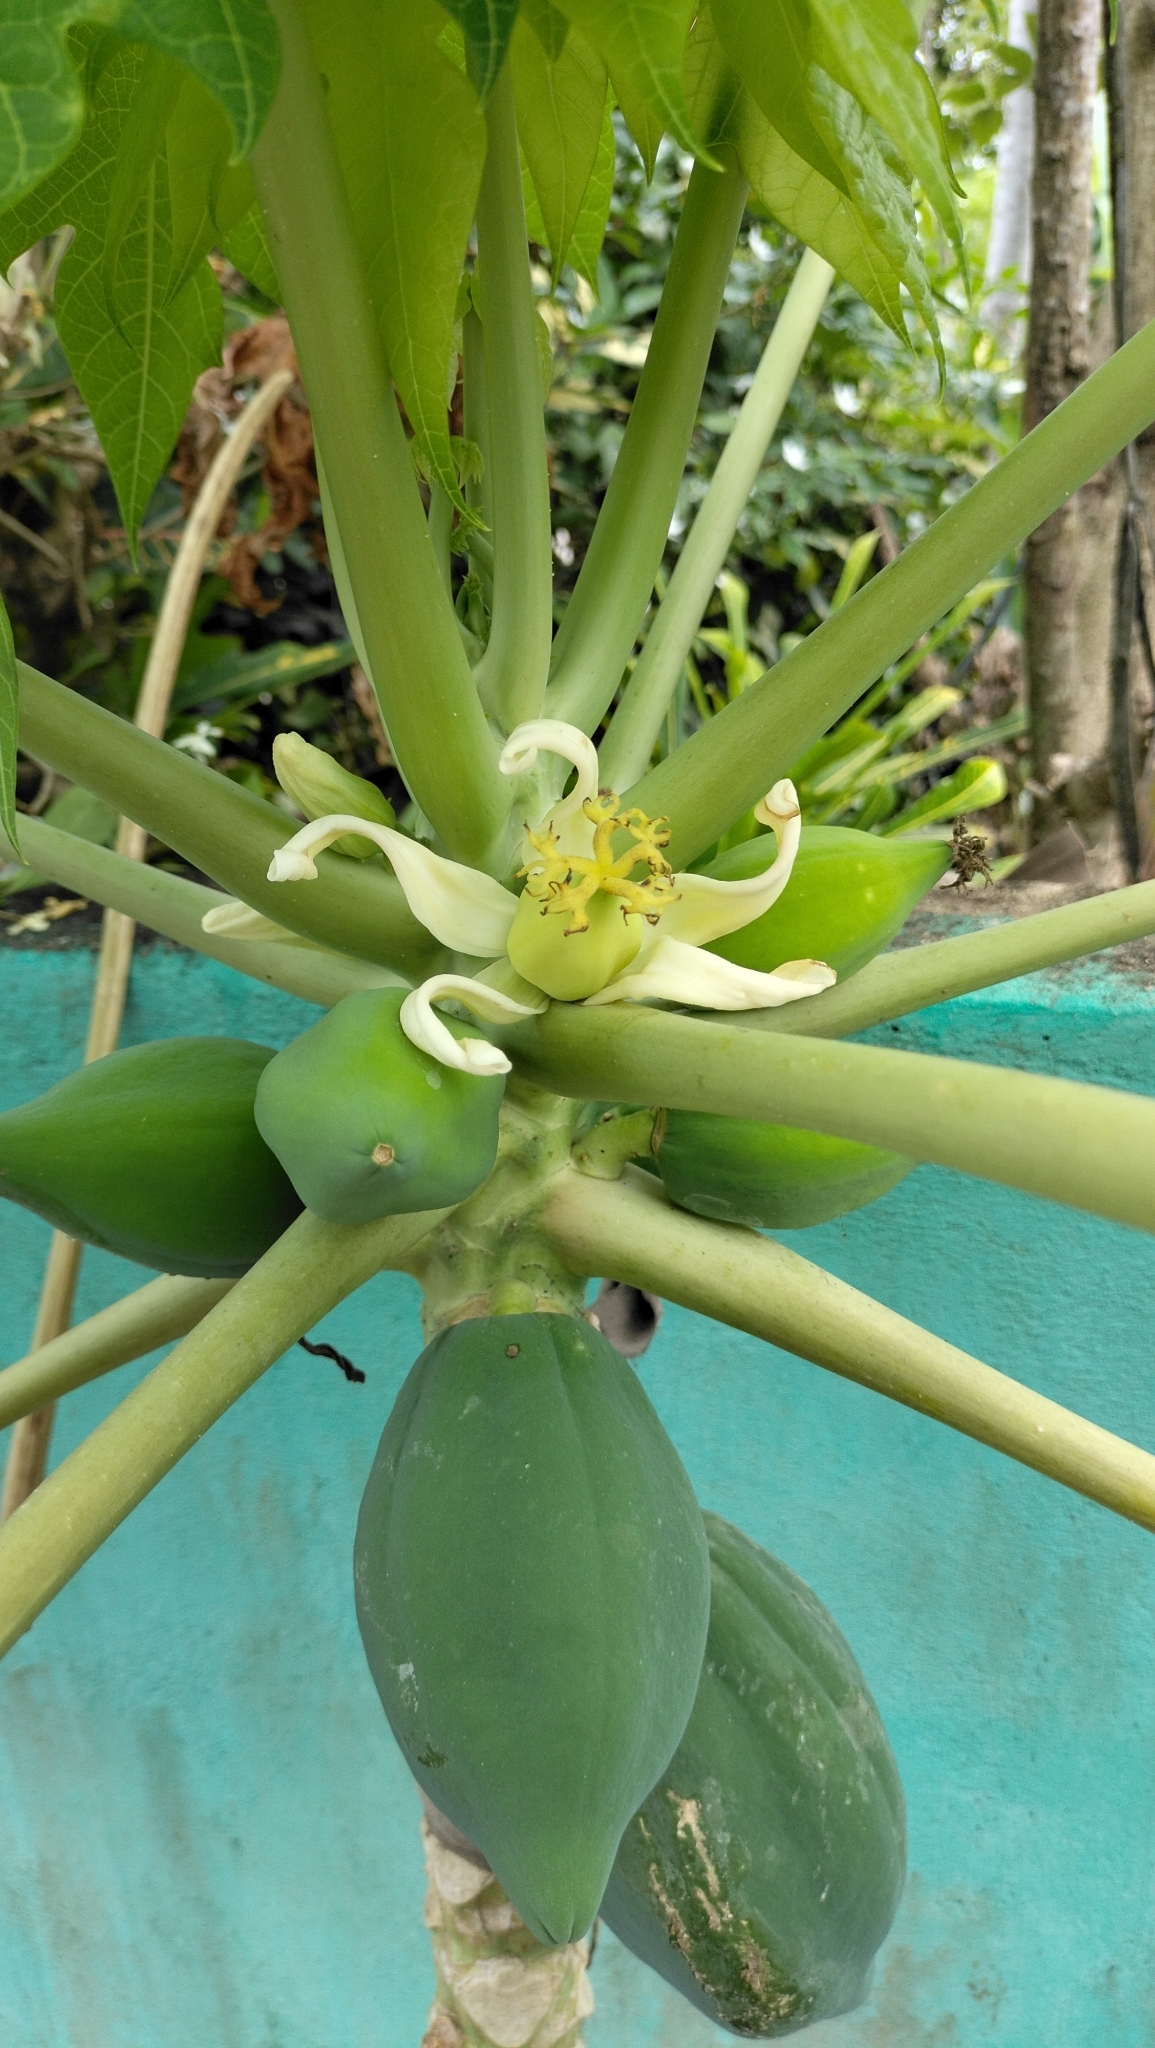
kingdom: Plantae
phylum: Tracheophyta
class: Magnoliopsida
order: Brassicales
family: Caricaceae
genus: Carica
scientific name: Carica papaya
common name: Papaya
